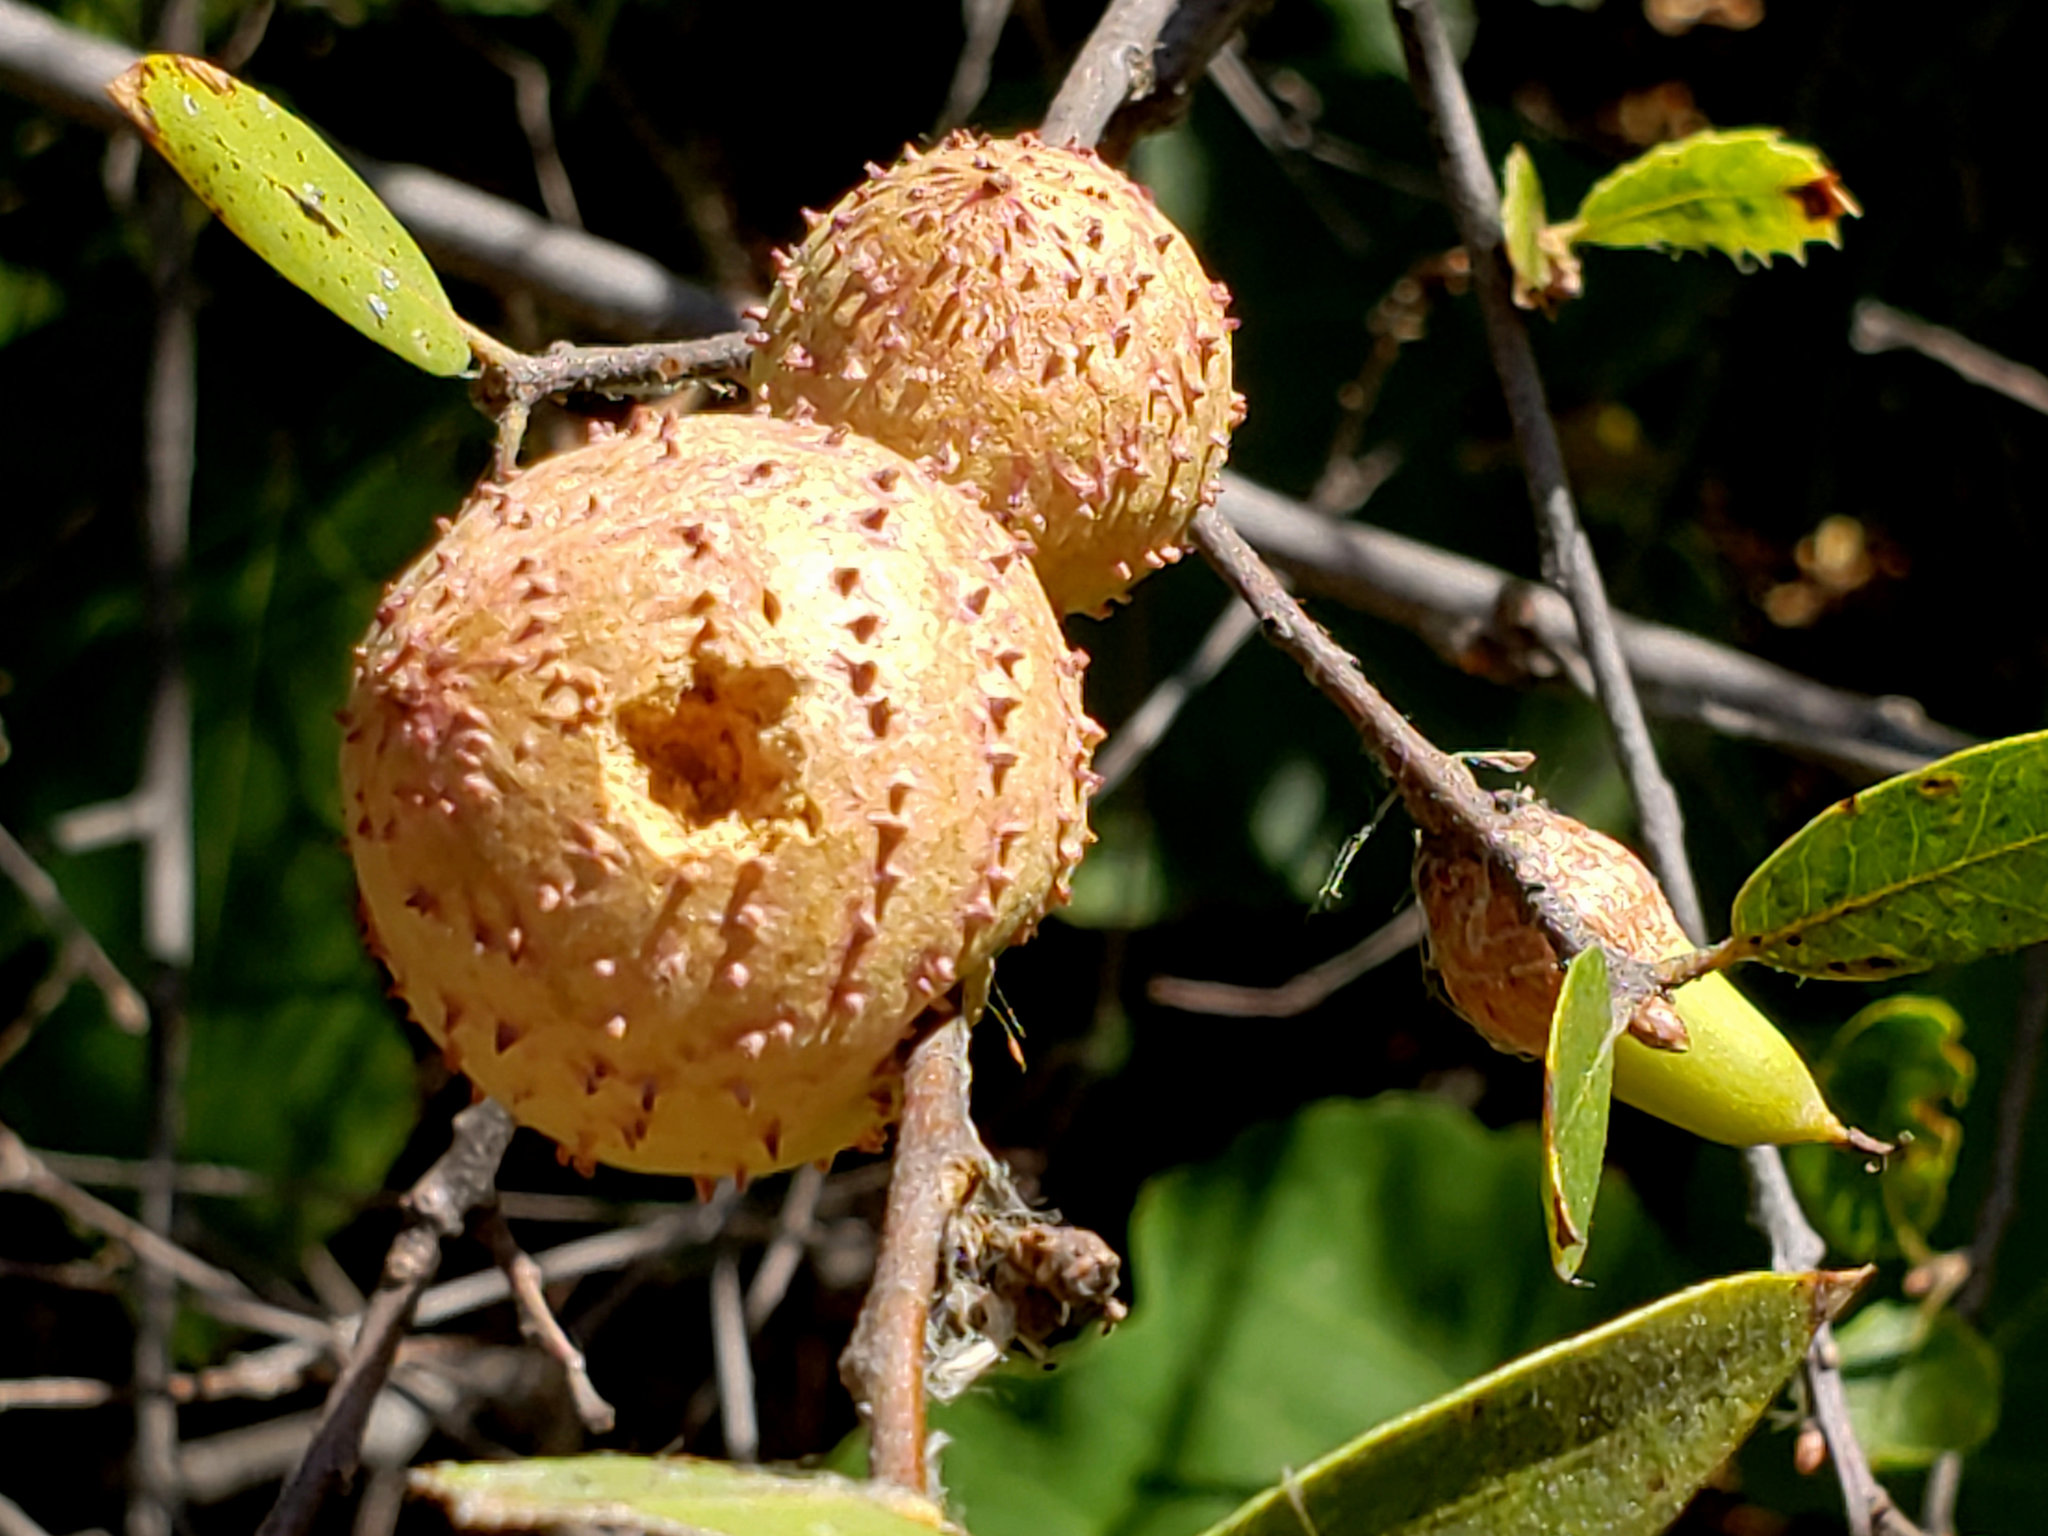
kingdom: Animalia
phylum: Arthropoda
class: Insecta
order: Hymenoptera
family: Cynipidae
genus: Amphibolips
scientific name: Amphibolips quercuspomiformis
